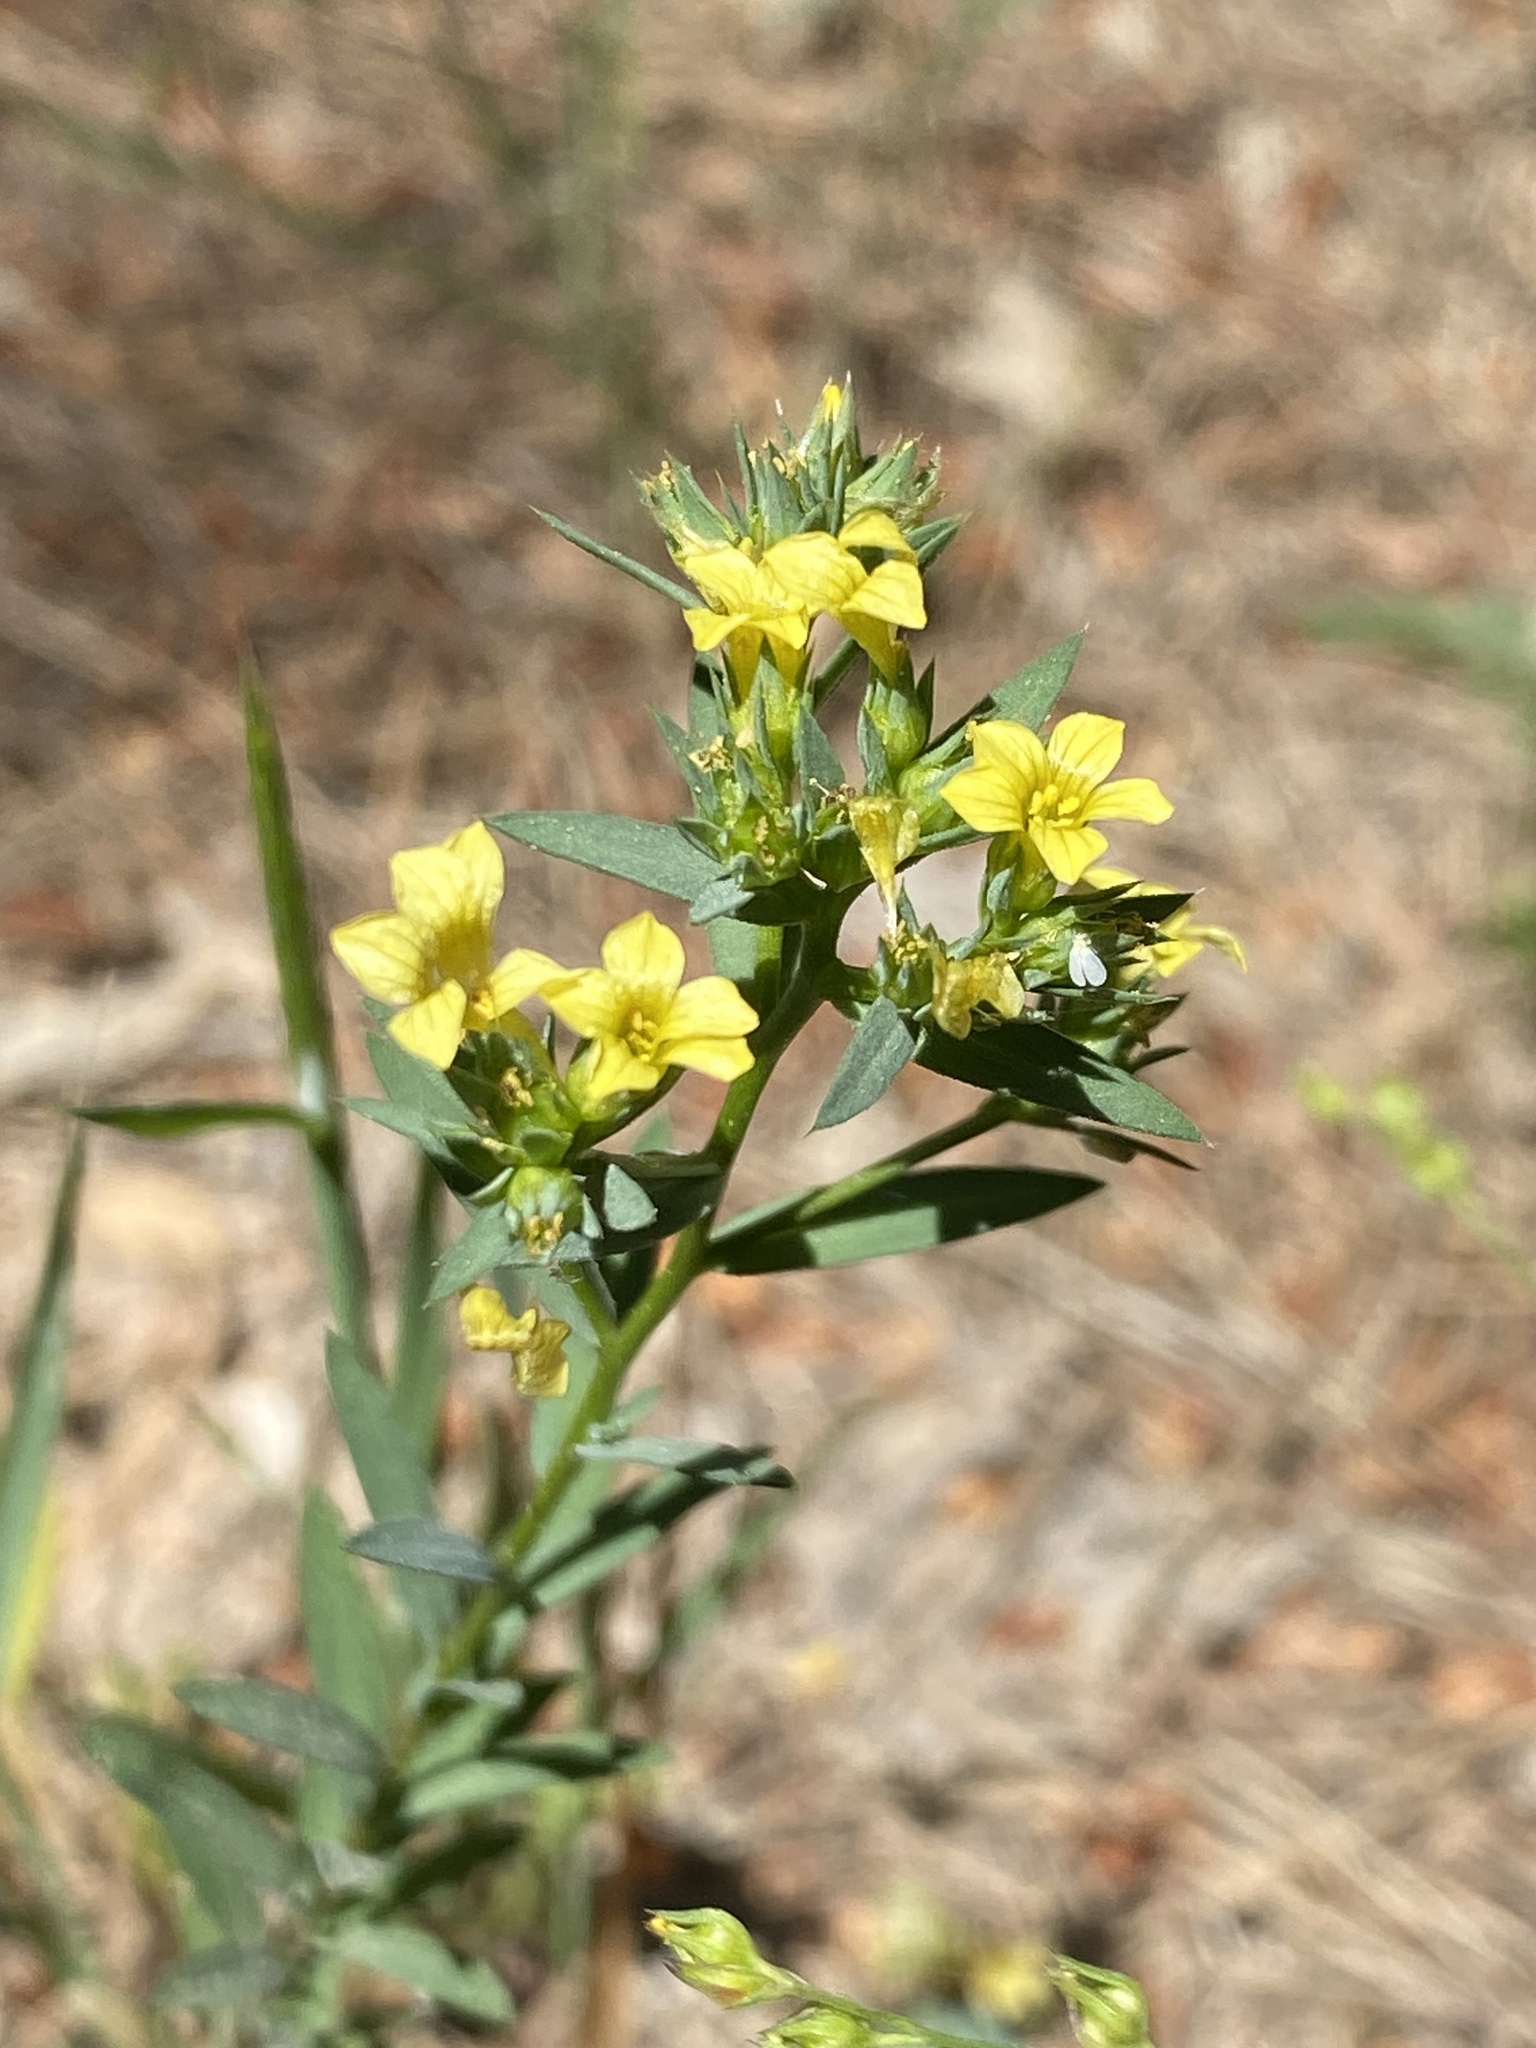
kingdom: Plantae
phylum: Tracheophyta
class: Magnoliopsida
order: Malpighiales
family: Linaceae
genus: Linum
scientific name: Linum strictum
